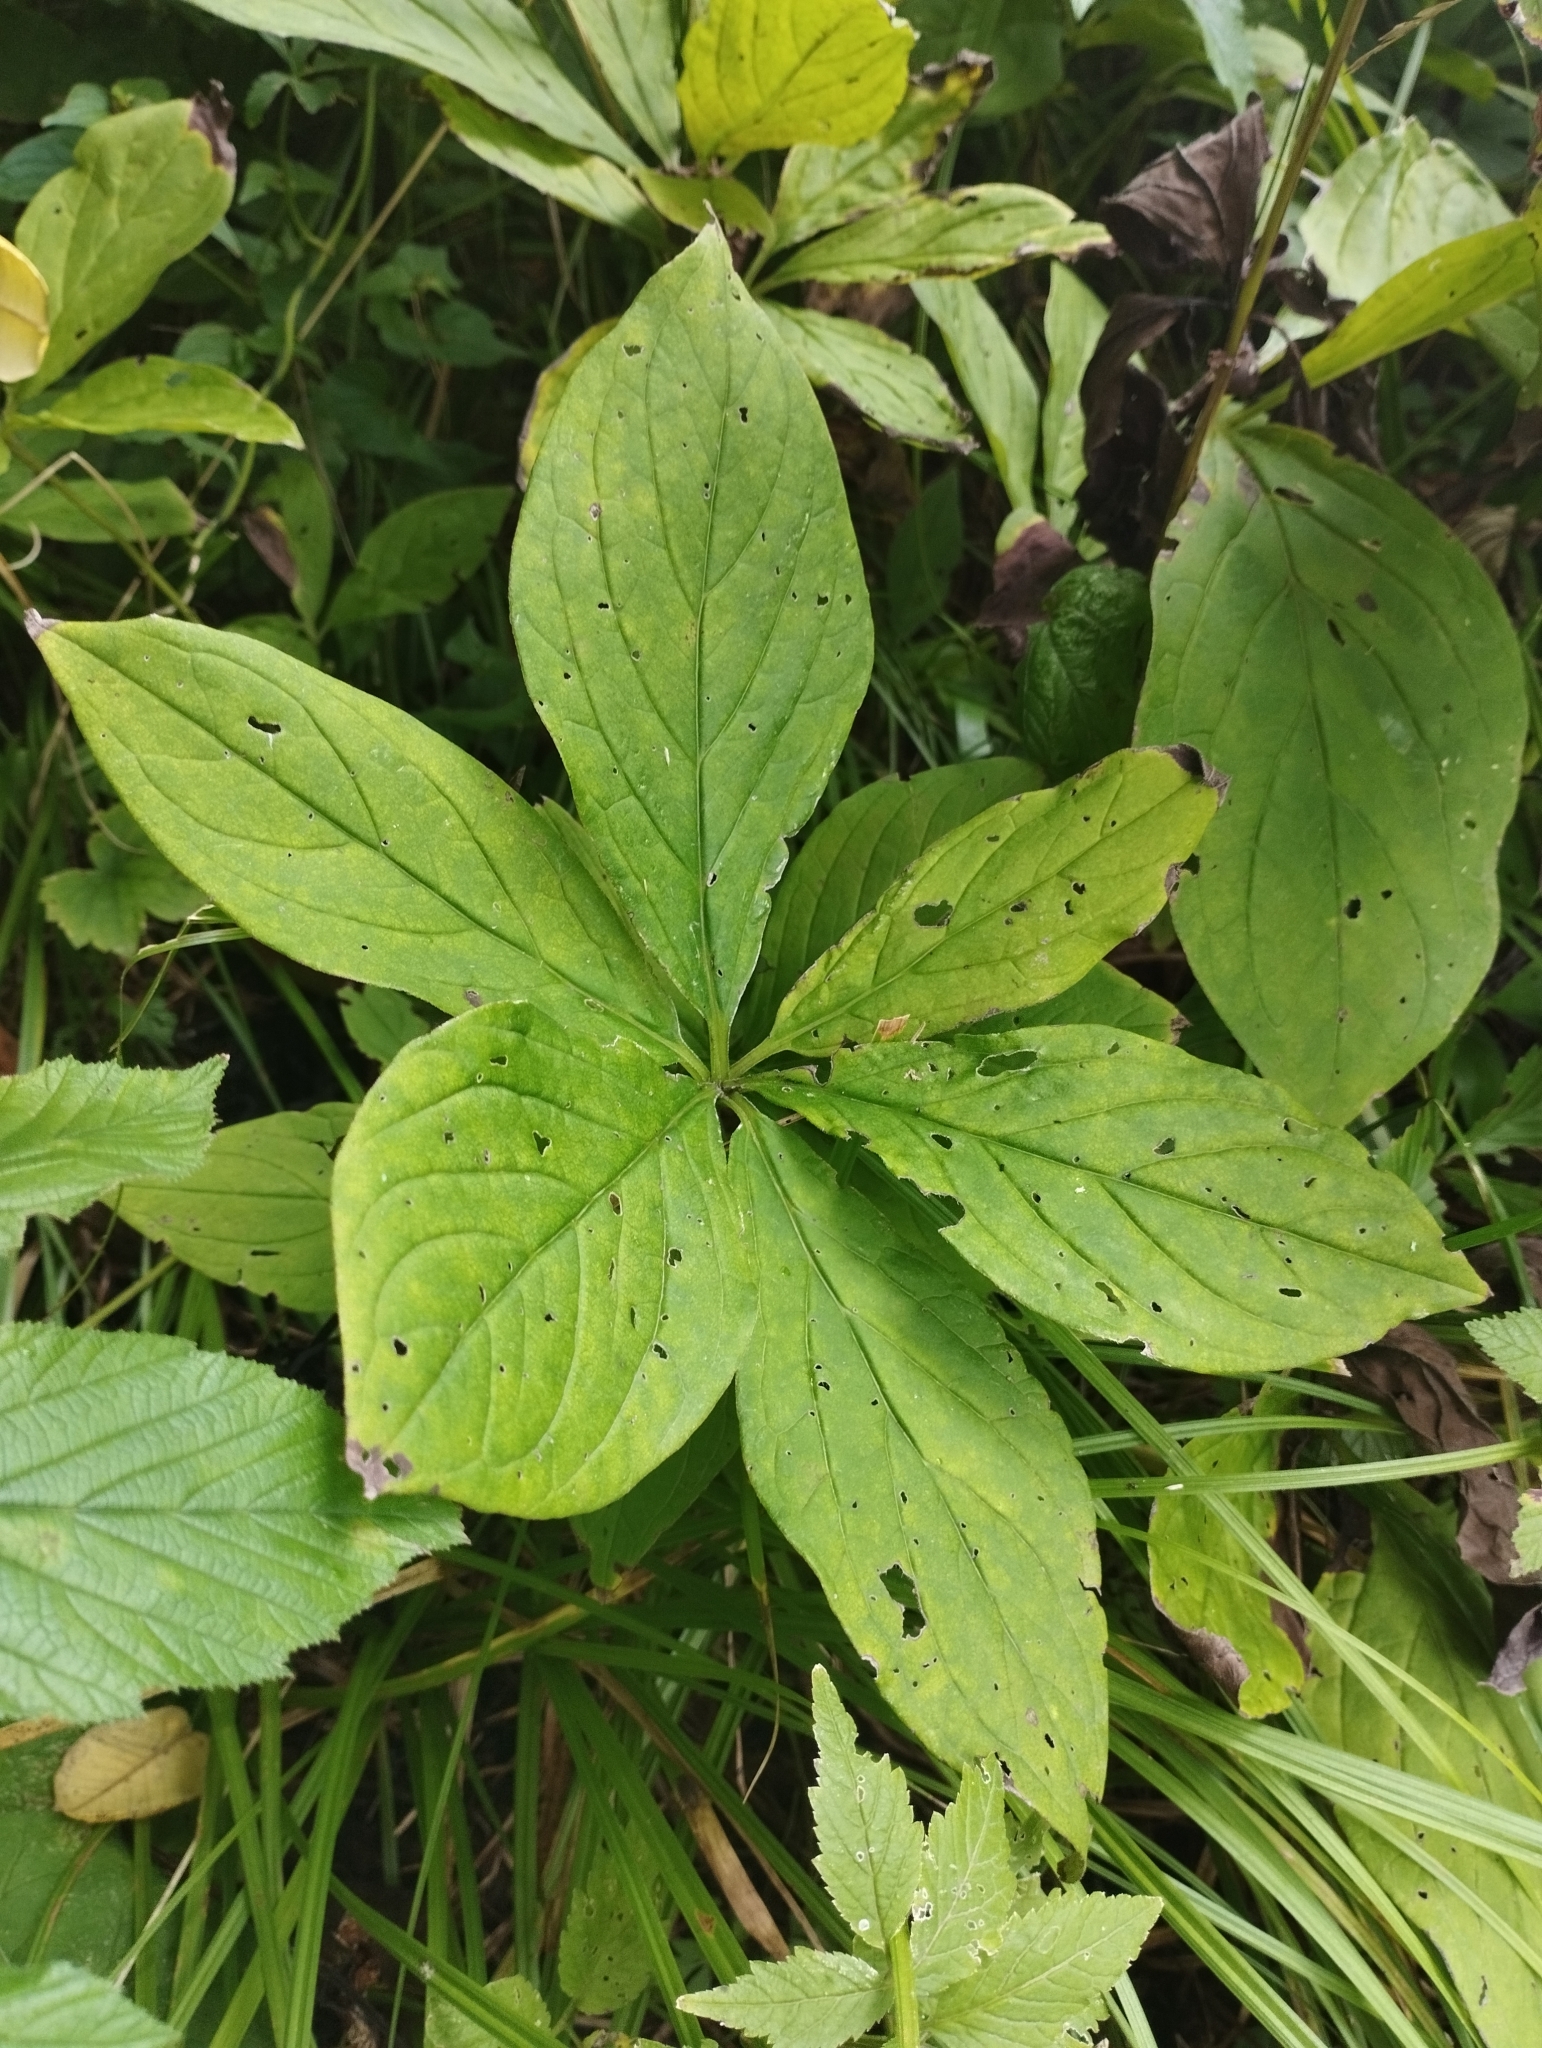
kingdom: Plantae
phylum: Tracheophyta
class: Magnoliopsida
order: Boraginales
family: Boraginaceae
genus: Brachybotrys
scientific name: Brachybotrys paridiformis
